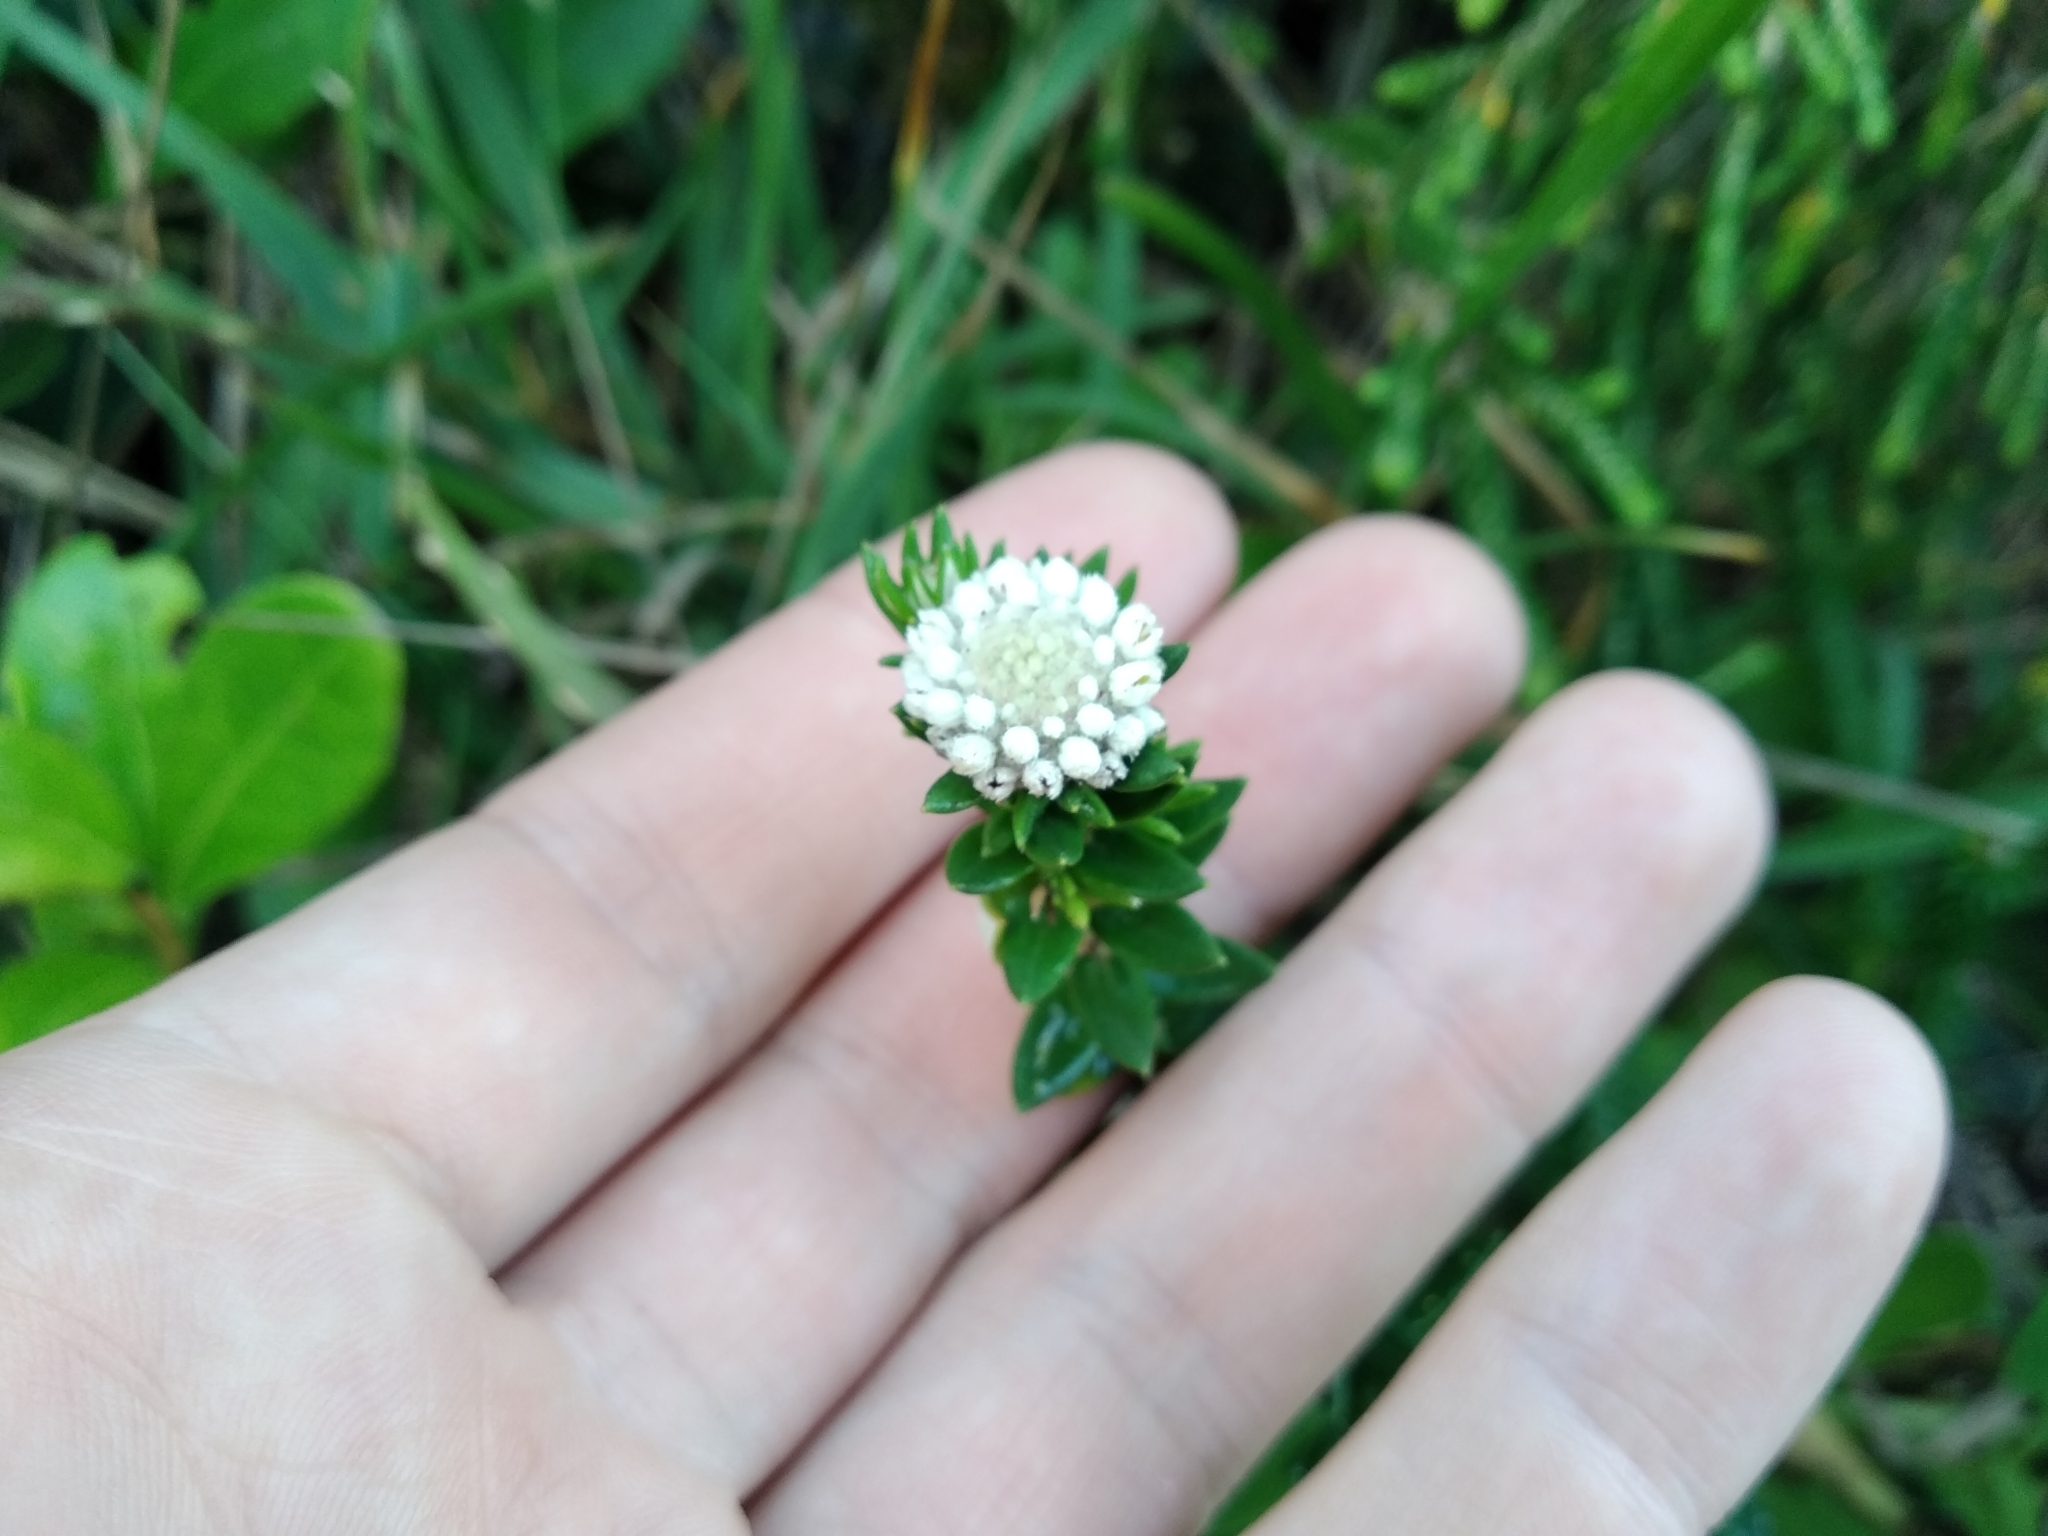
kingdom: Plantae
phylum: Tracheophyta
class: Magnoliopsida
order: Rosales
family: Rhamnaceae
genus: Phylica
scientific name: Phylica litoralis
